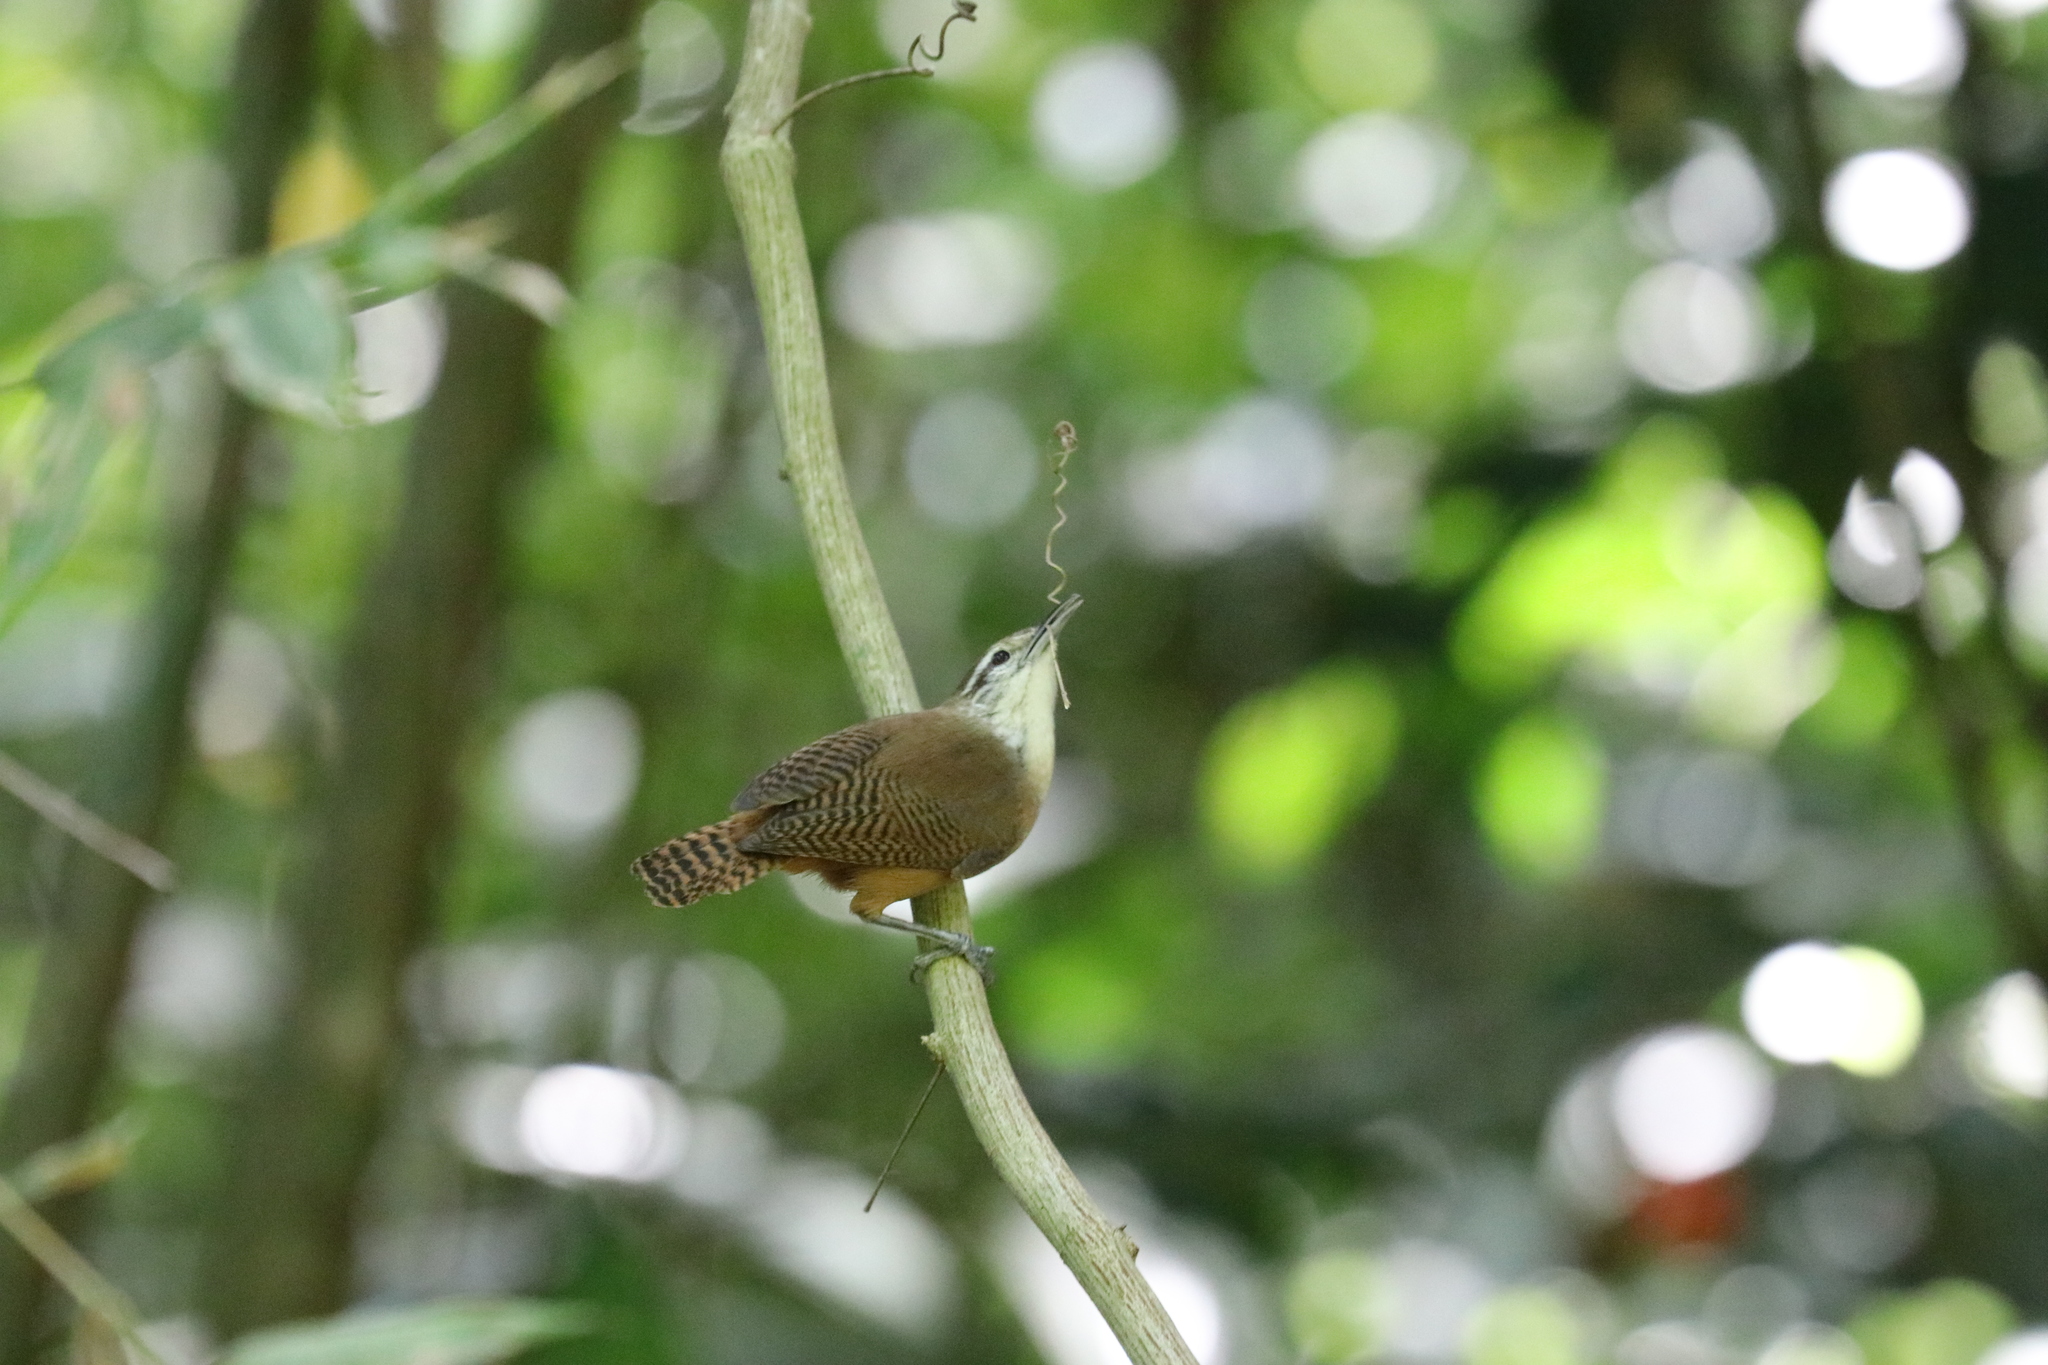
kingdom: Animalia
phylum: Chordata
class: Aves
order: Passeriformes
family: Troglodytidae
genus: Cantorchilus
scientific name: Cantorchilus leucotis
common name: Buff-breasted wren
